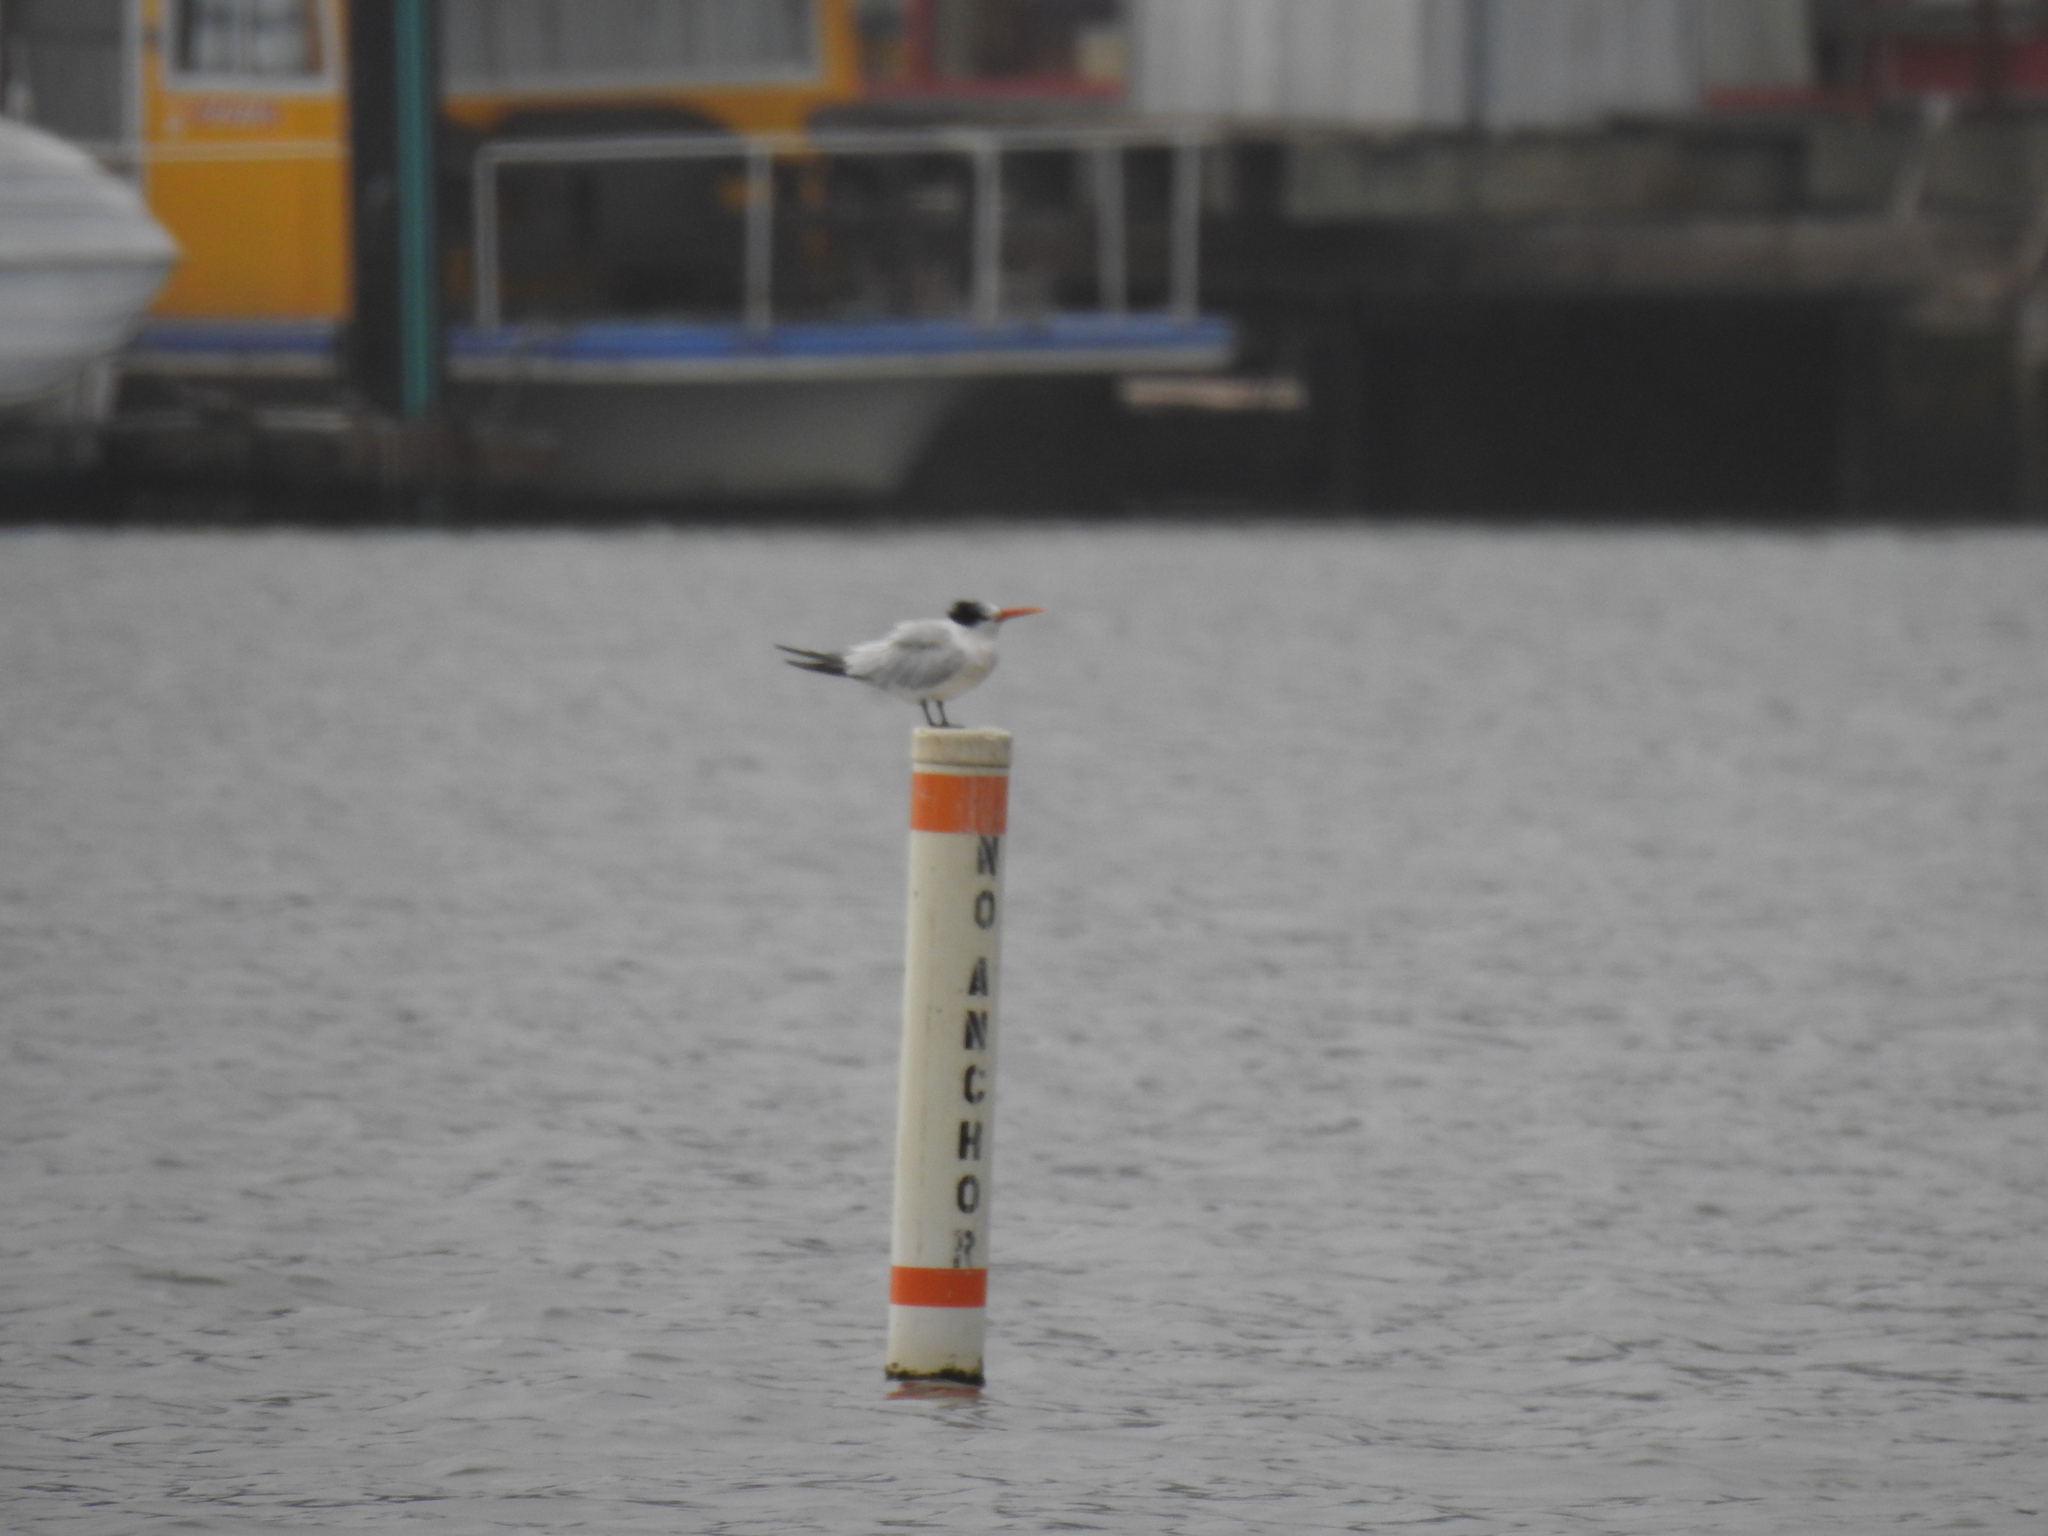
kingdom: Animalia
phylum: Chordata
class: Aves
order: Charadriiformes
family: Laridae
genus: Thalasseus
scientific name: Thalasseus elegans
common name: Elegant tern
